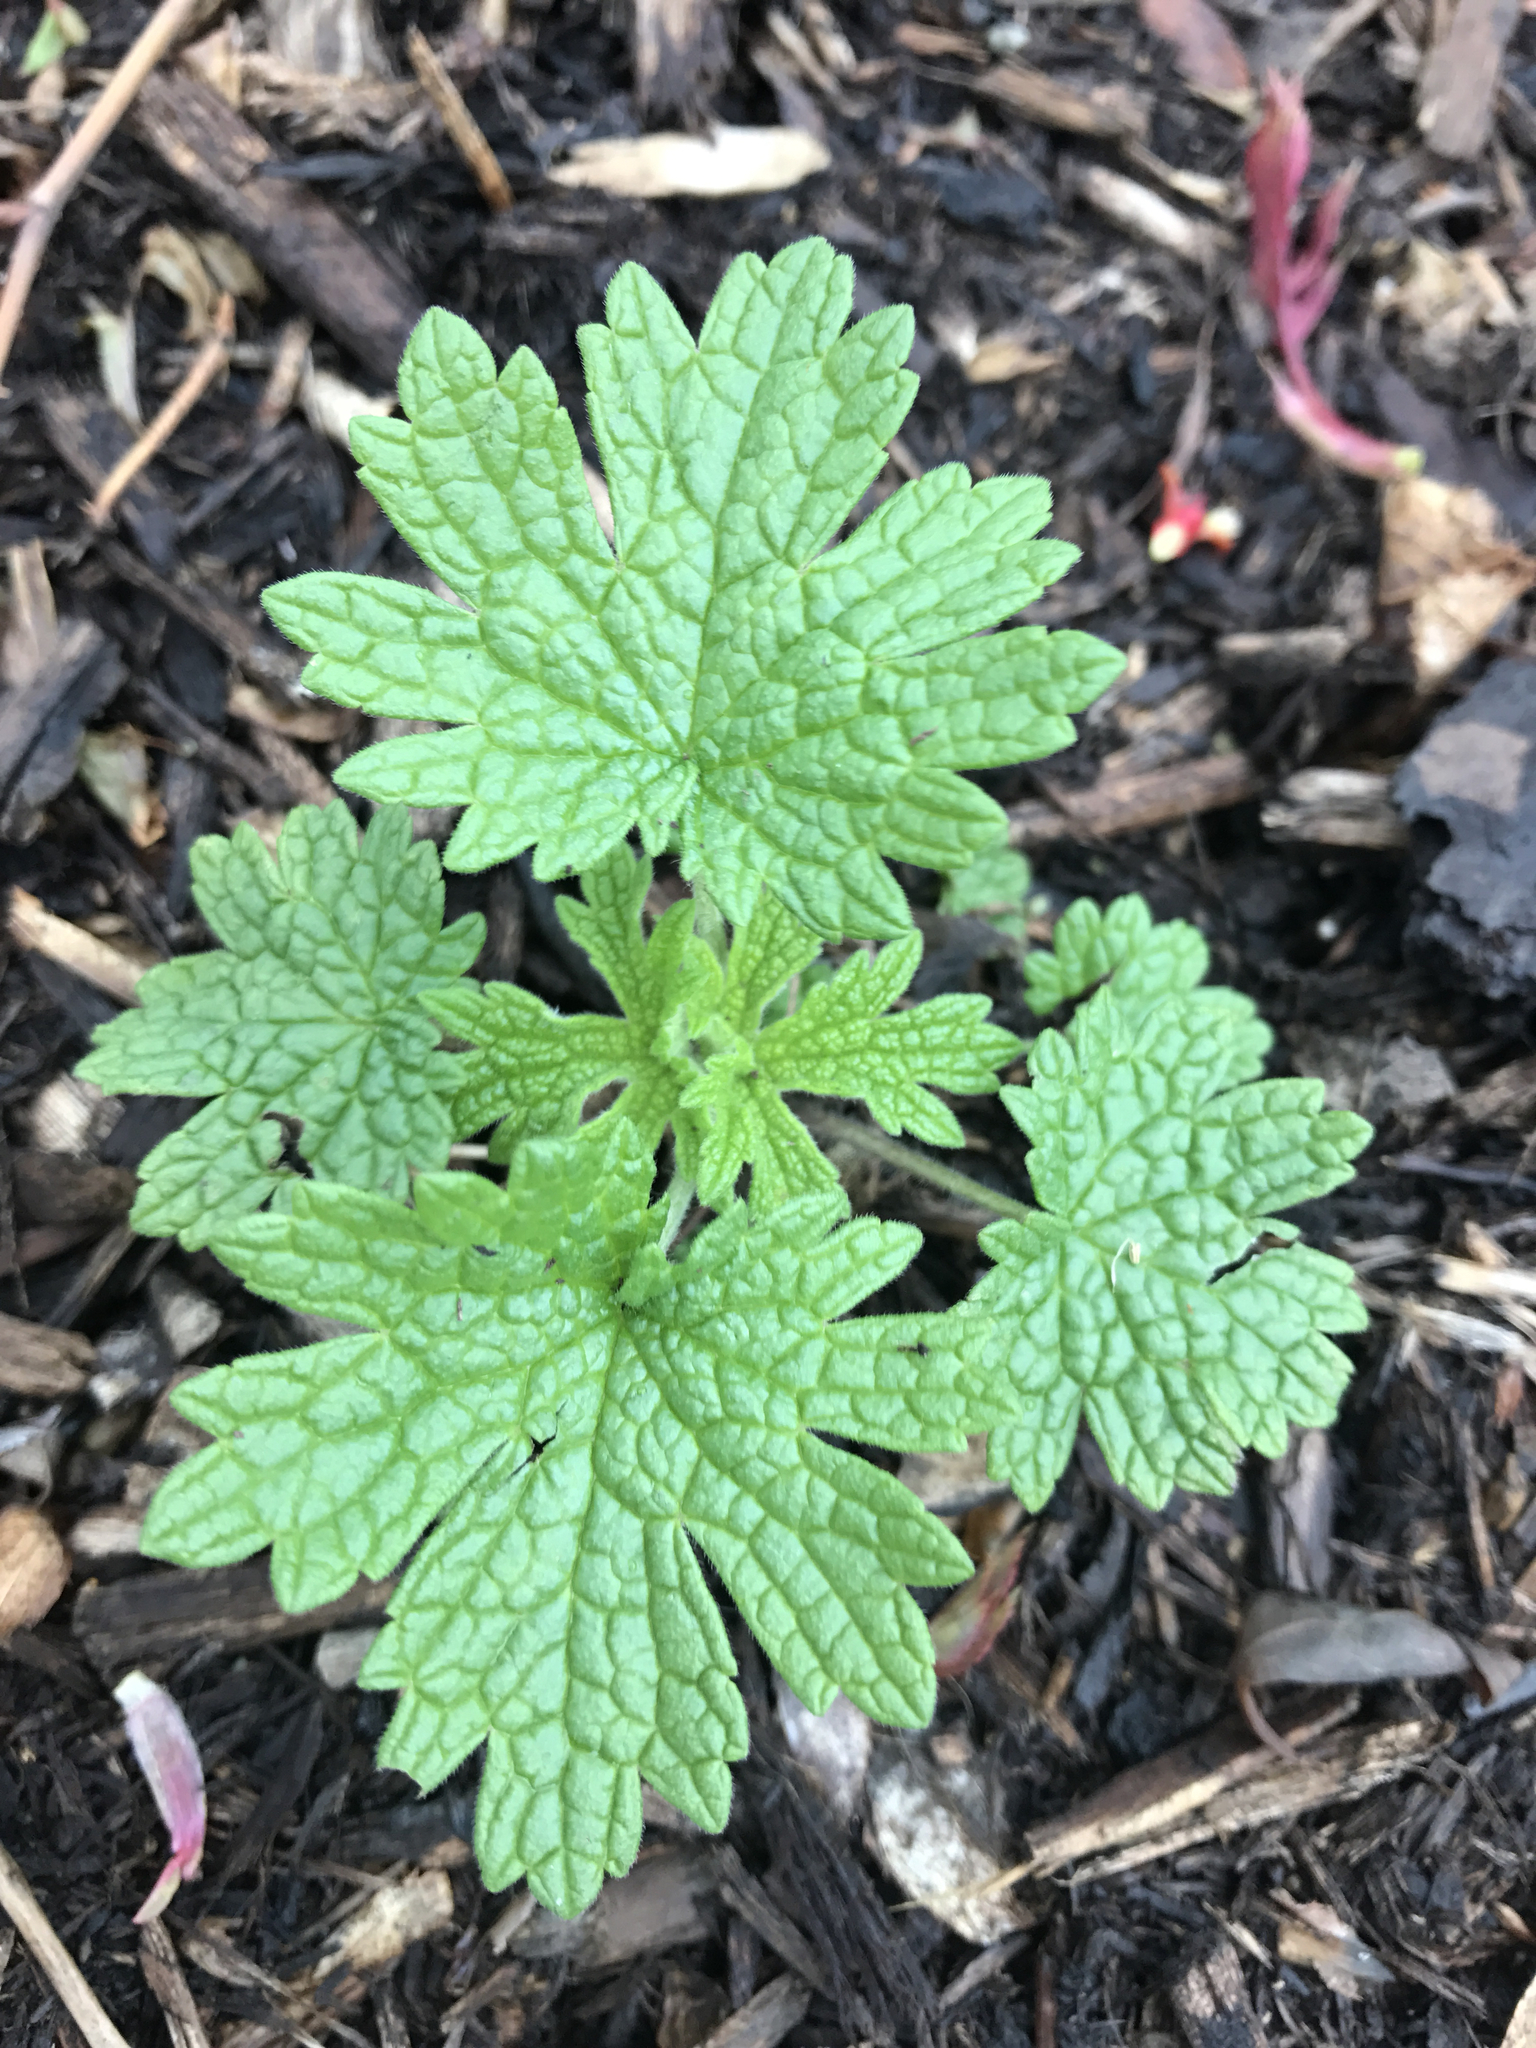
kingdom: Plantae
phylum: Tracheophyta
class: Magnoliopsida
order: Lamiales
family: Lamiaceae
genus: Leonurus
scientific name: Leonurus cardiaca
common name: Motherwort
